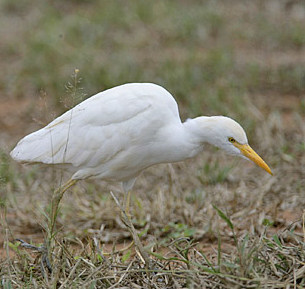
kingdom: Animalia
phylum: Chordata
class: Aves
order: Pelecaniformes
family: Ardeidae
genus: Bubulcus
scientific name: Bubulcus ibis
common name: Cattle egret
